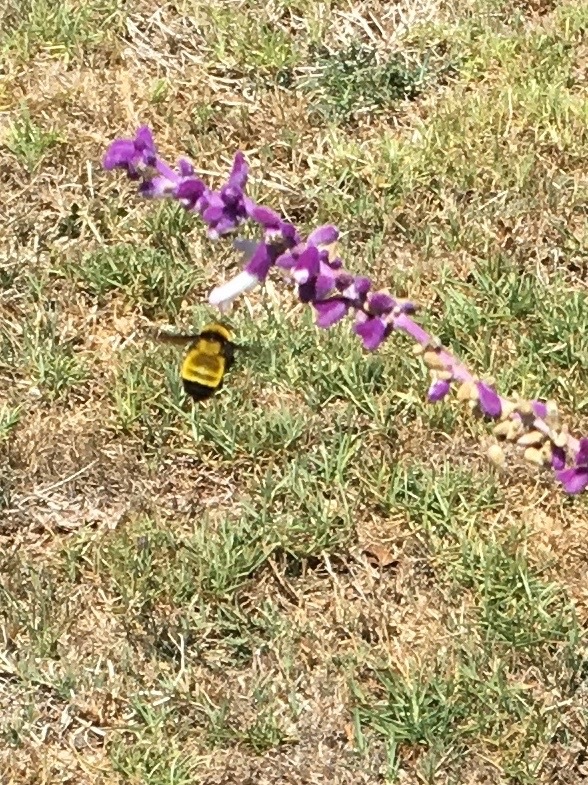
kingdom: Animalia
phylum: Arthropoda
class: Insecta
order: Hymenoptera
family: Apidae
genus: Bombus
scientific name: Bombus sonorus
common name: Sonoran bumble bee
